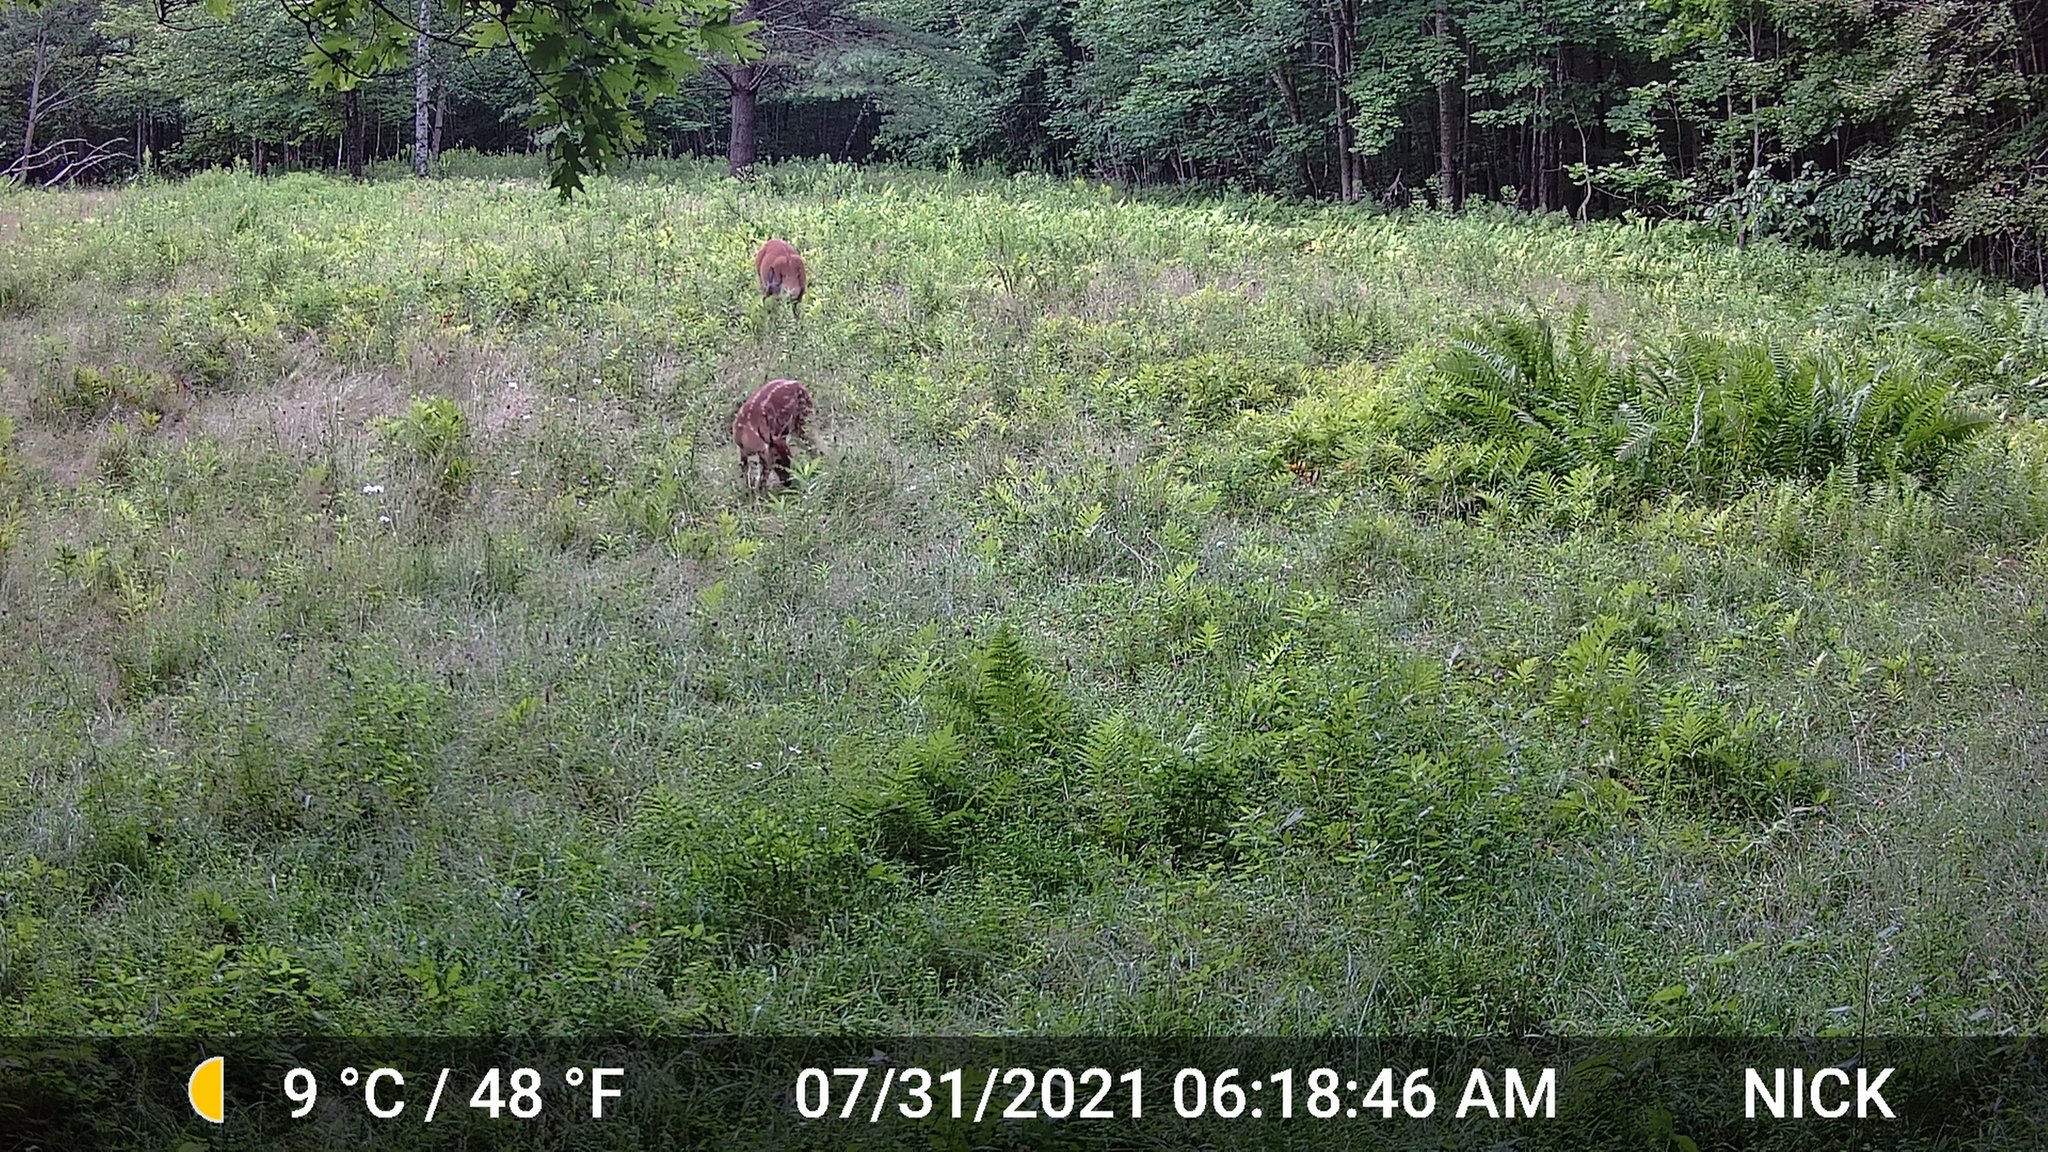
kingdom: Animalia
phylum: Chordata
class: Mammalia
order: Artiodactyla
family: Cervidae
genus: Odocoileus
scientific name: Odocoileus virginianus
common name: White-tailed deer
